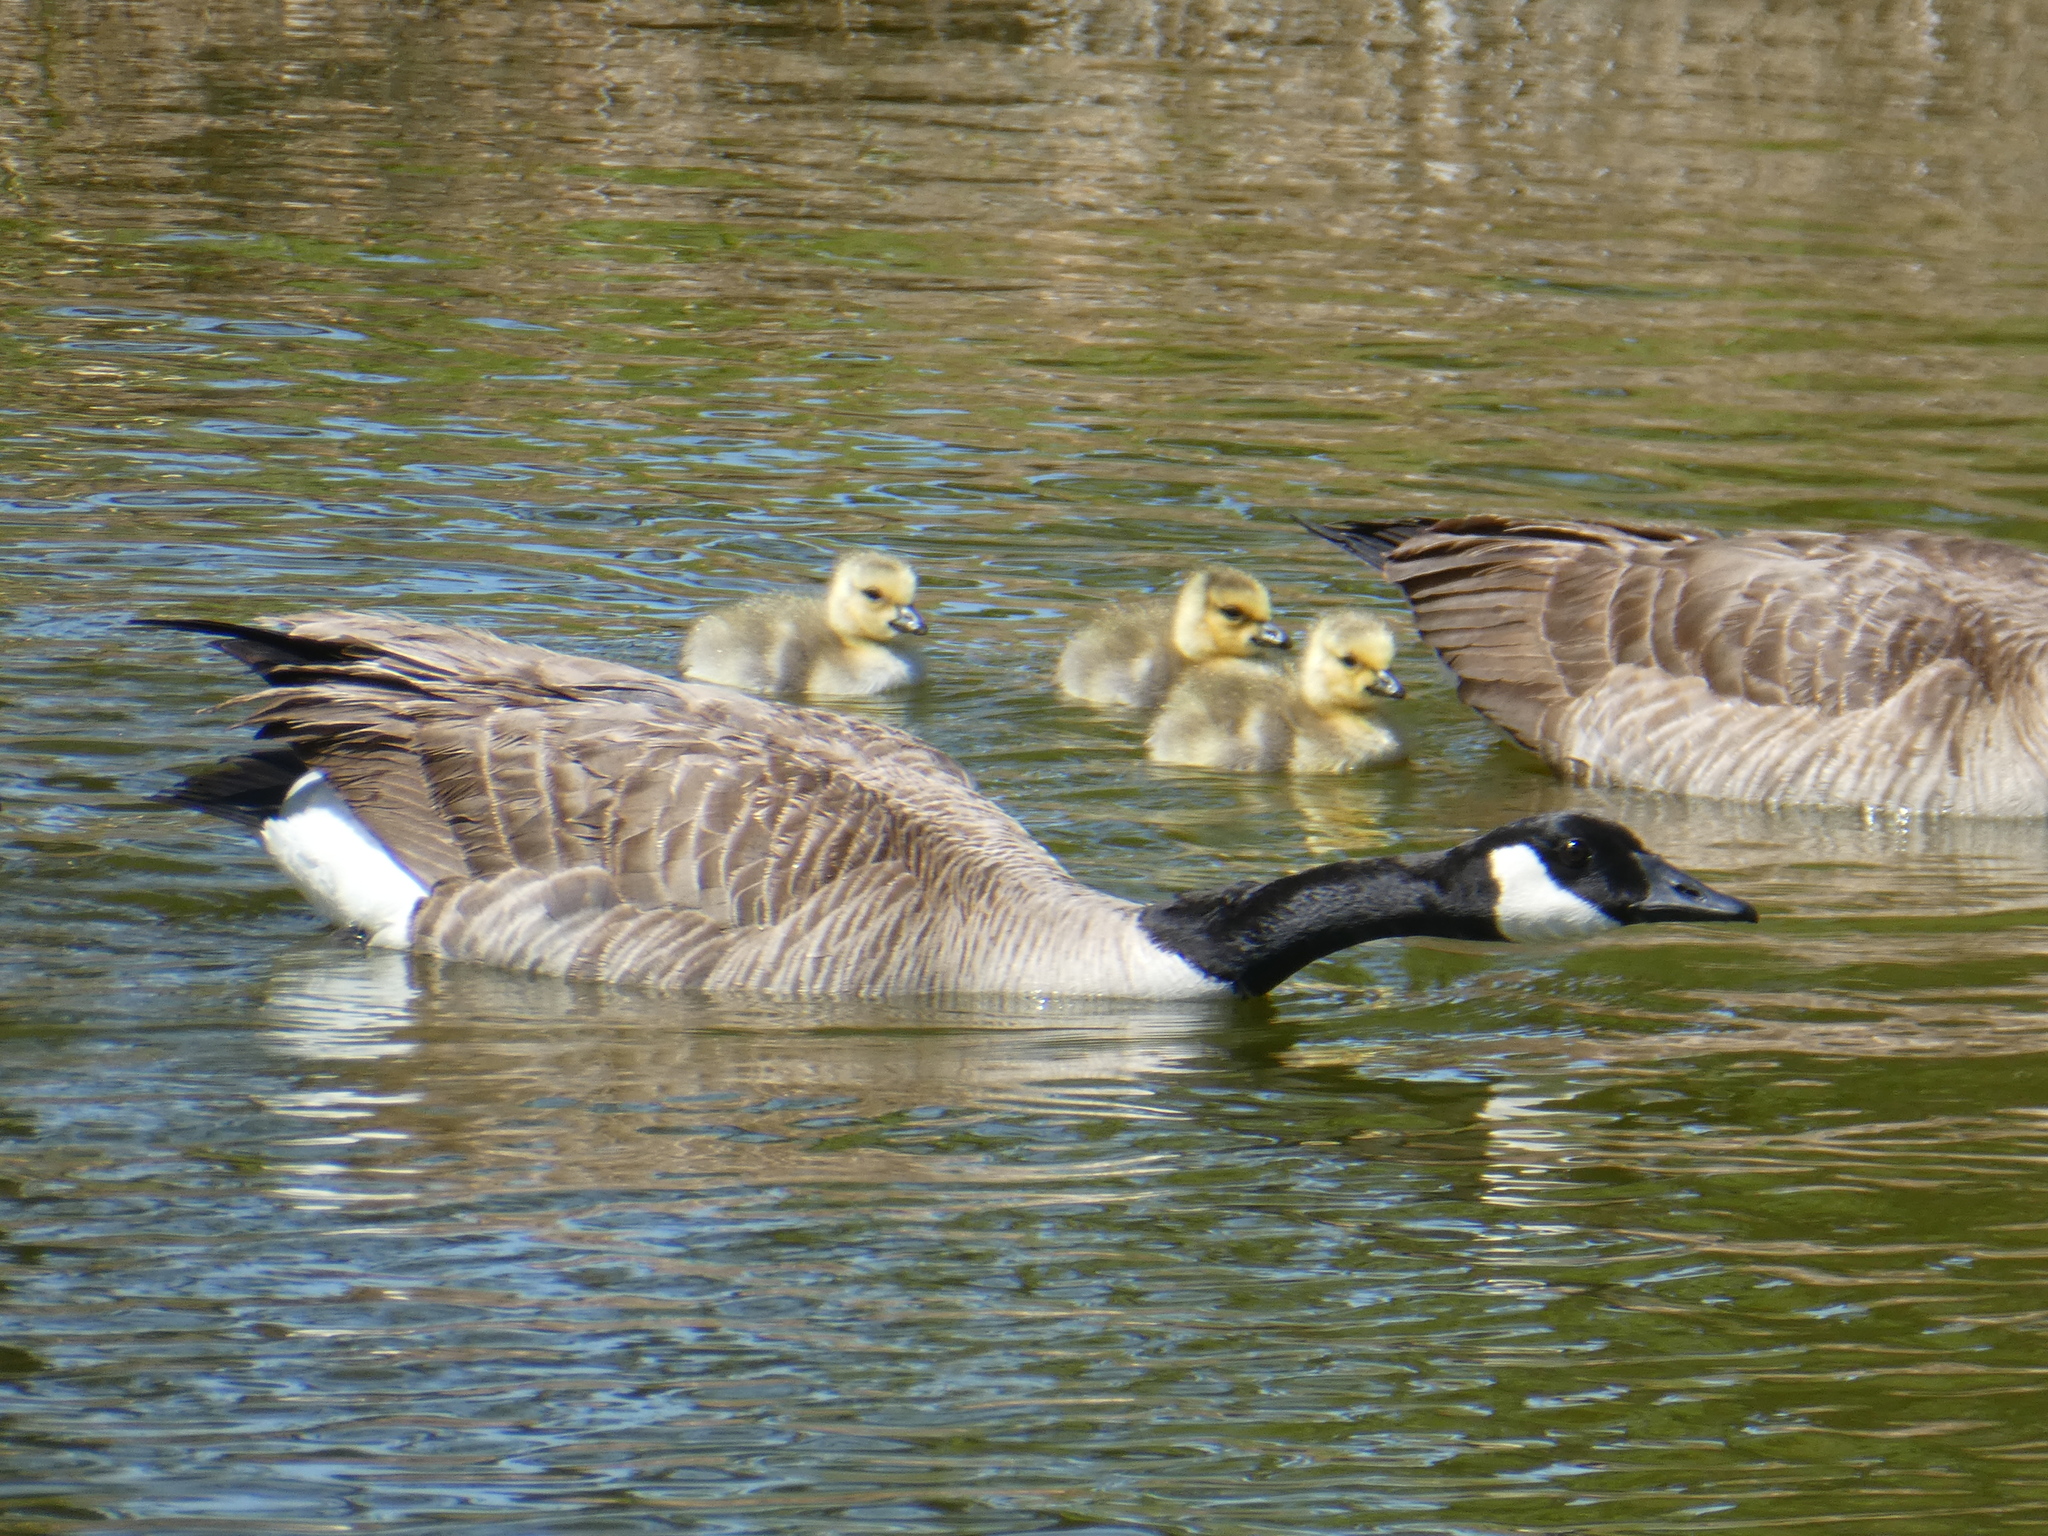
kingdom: Animalia
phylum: Chordata
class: Aves
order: Anseriformes
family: Anatidae
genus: Branta
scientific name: Branta canadensis
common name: Canada goose
